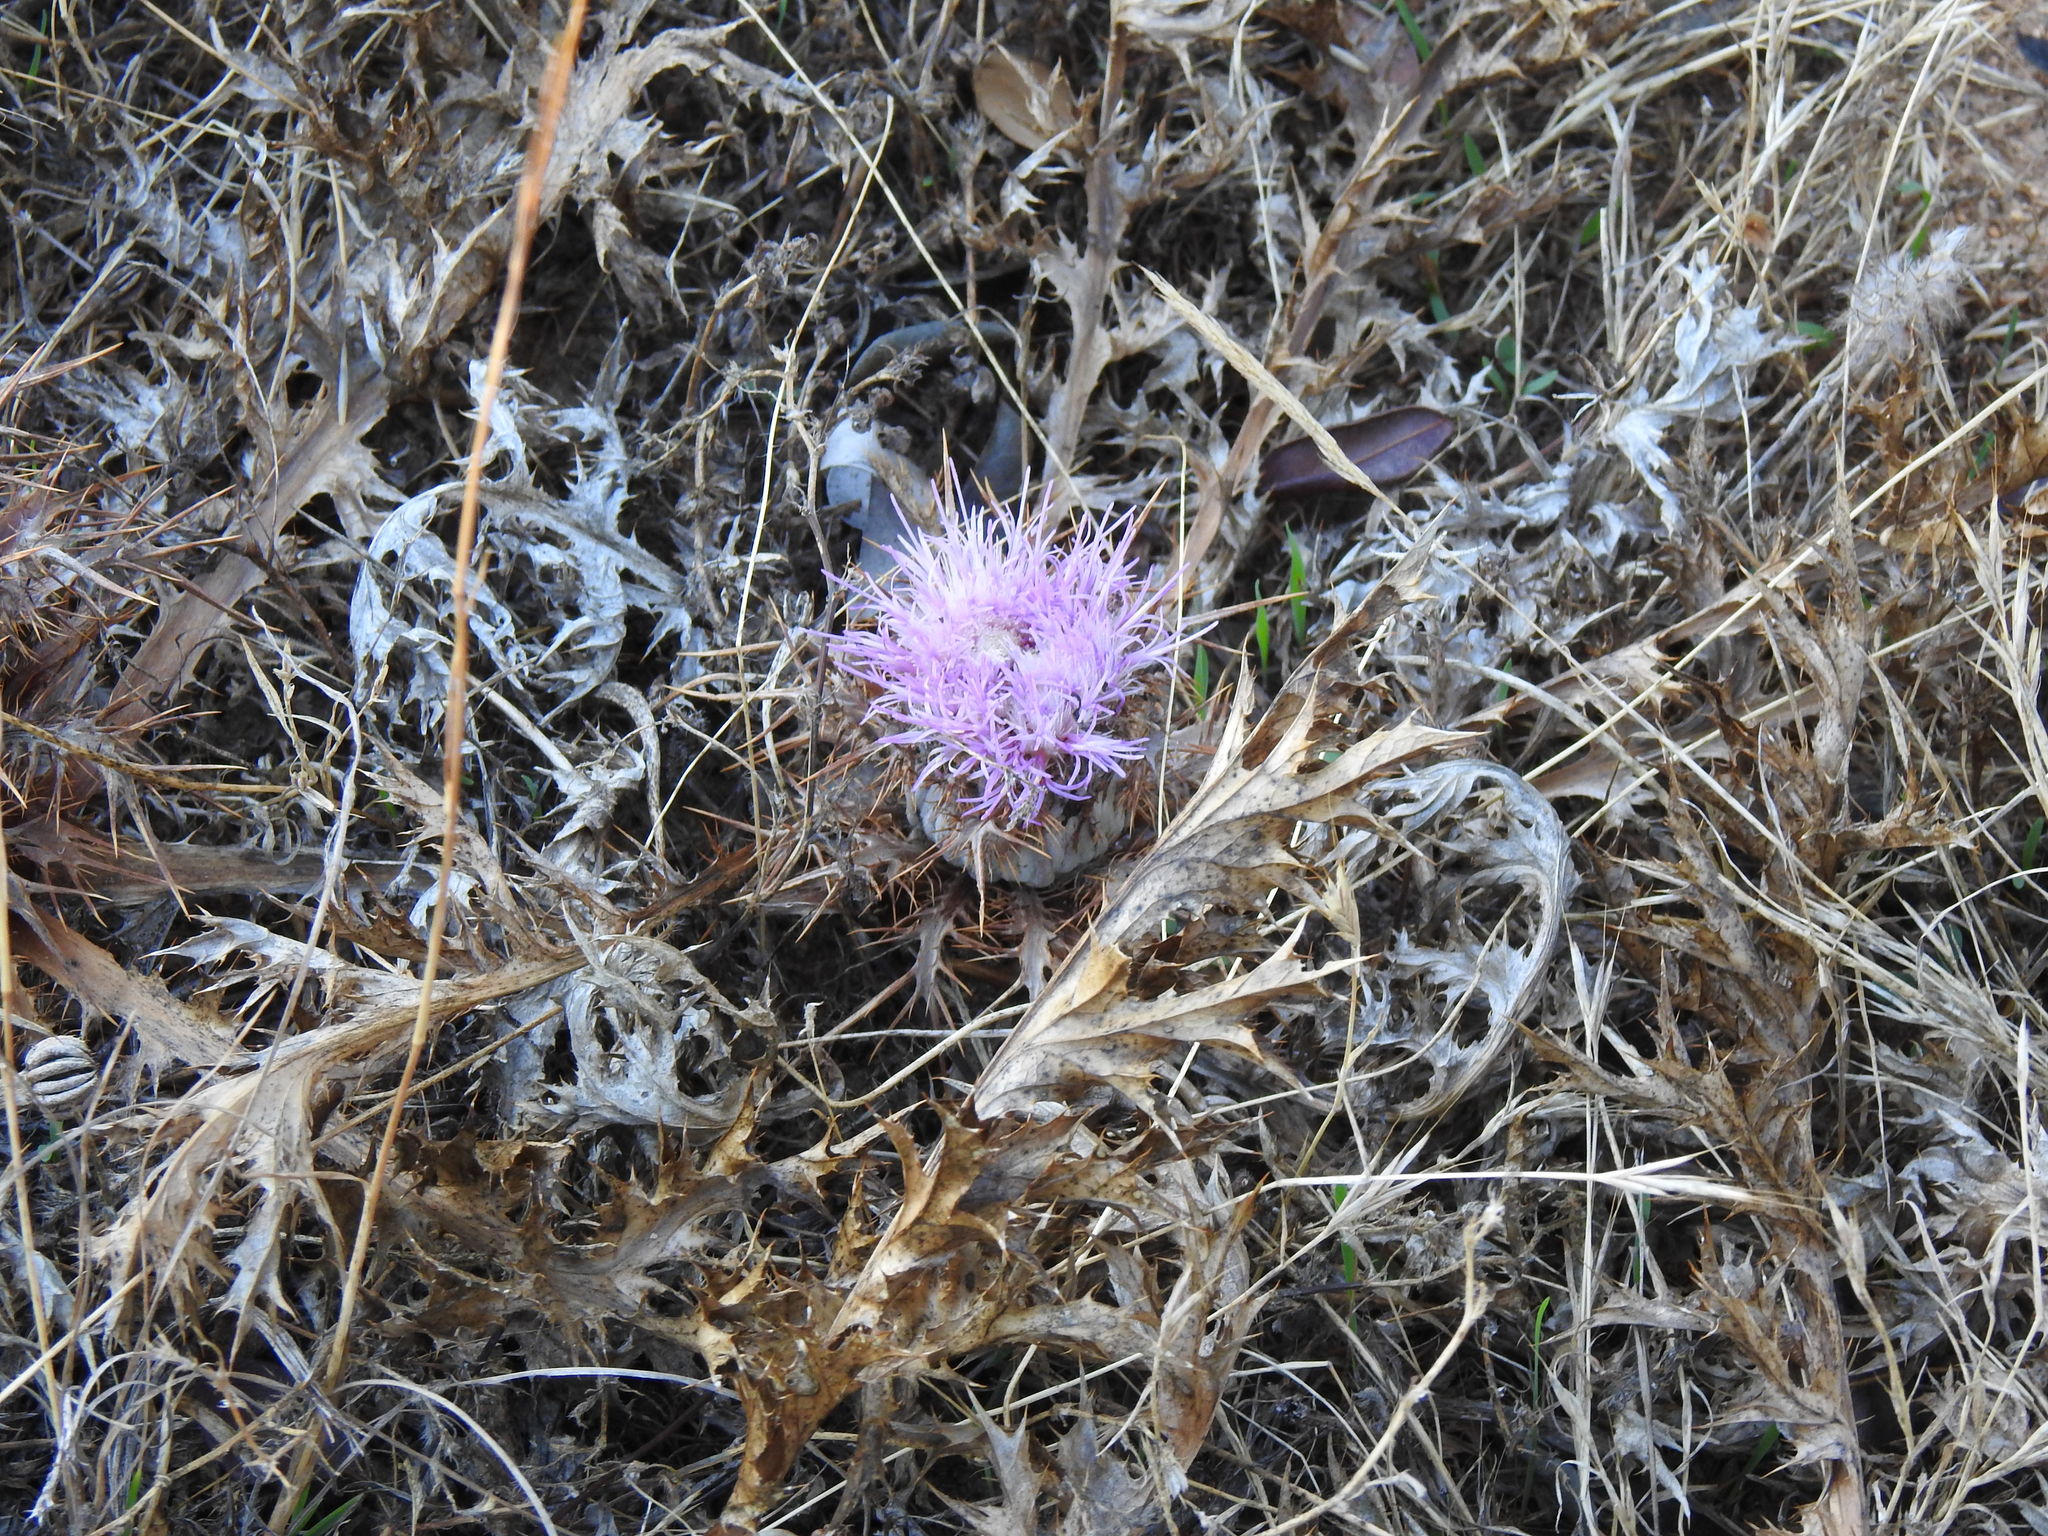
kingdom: Plantae
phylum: Tracheophyta
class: Magnoliopsida
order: Asterales
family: Asteraceae
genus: Chamaeleon
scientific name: Chamaeleon gummifer
